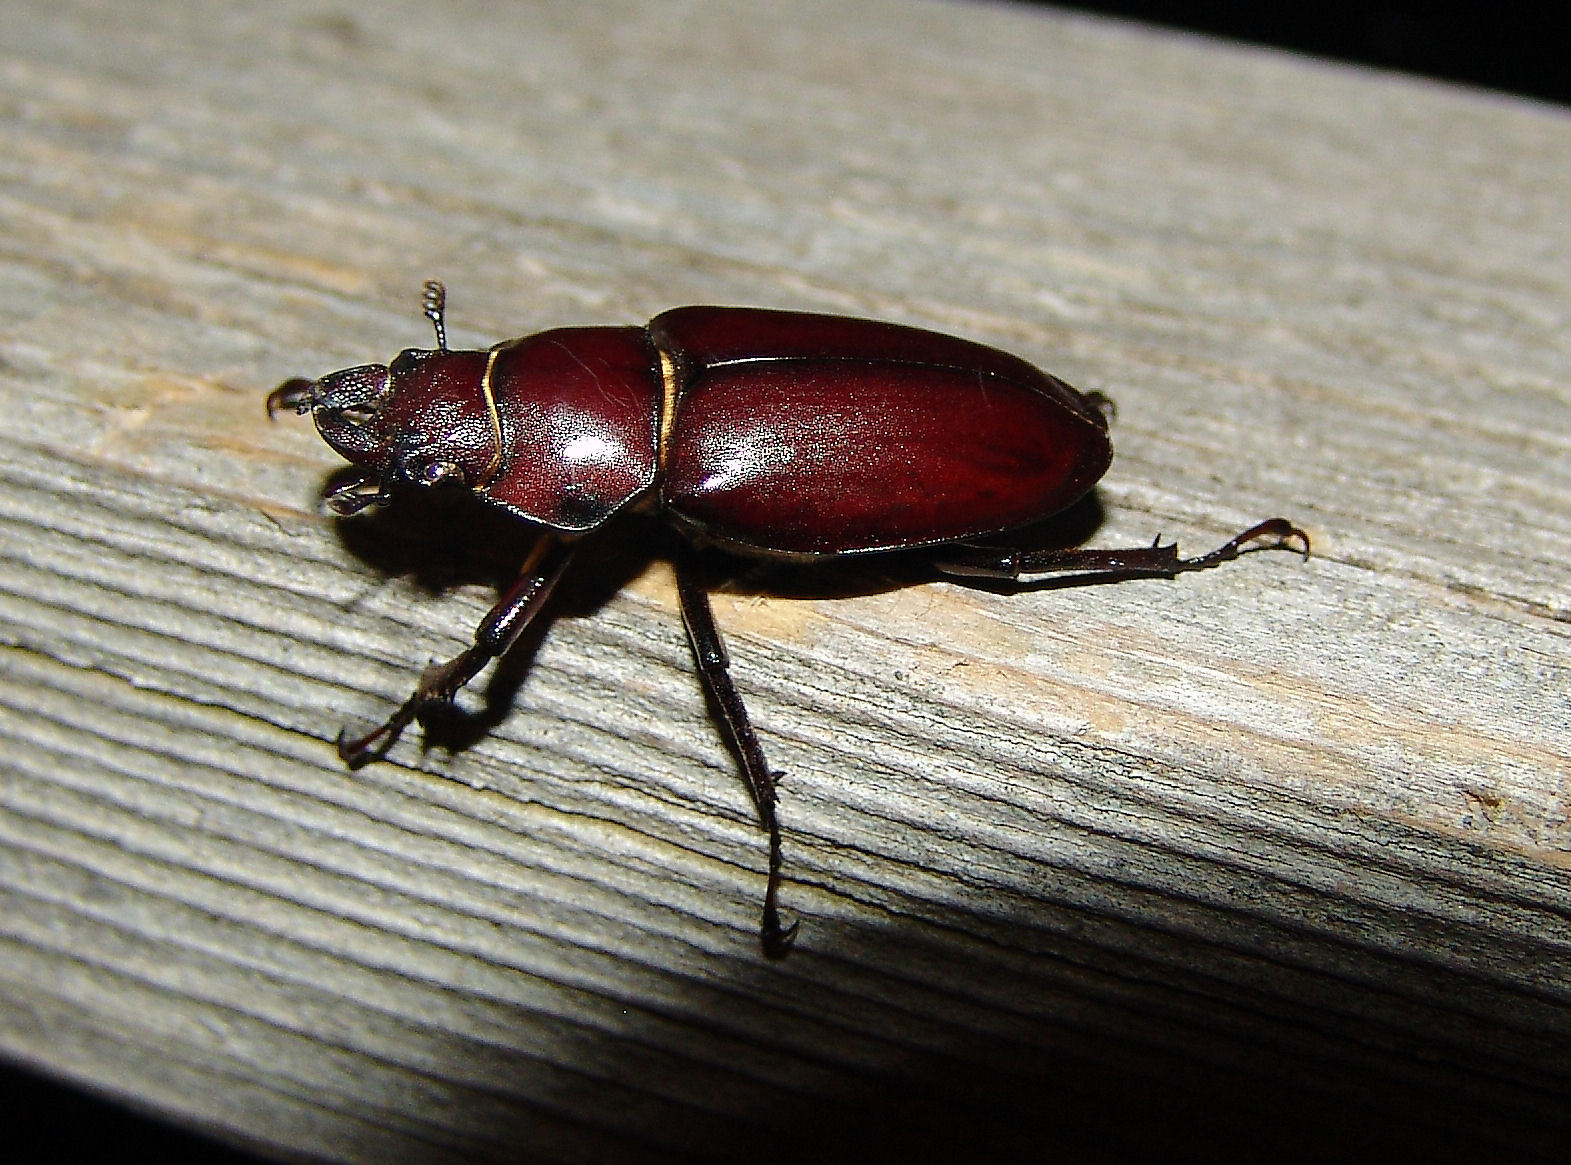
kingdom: Animalia
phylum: Arthropoda
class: Insecta
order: Coleoptera
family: Lucanidae
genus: Lucanus
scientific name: Lucanus elaphus
